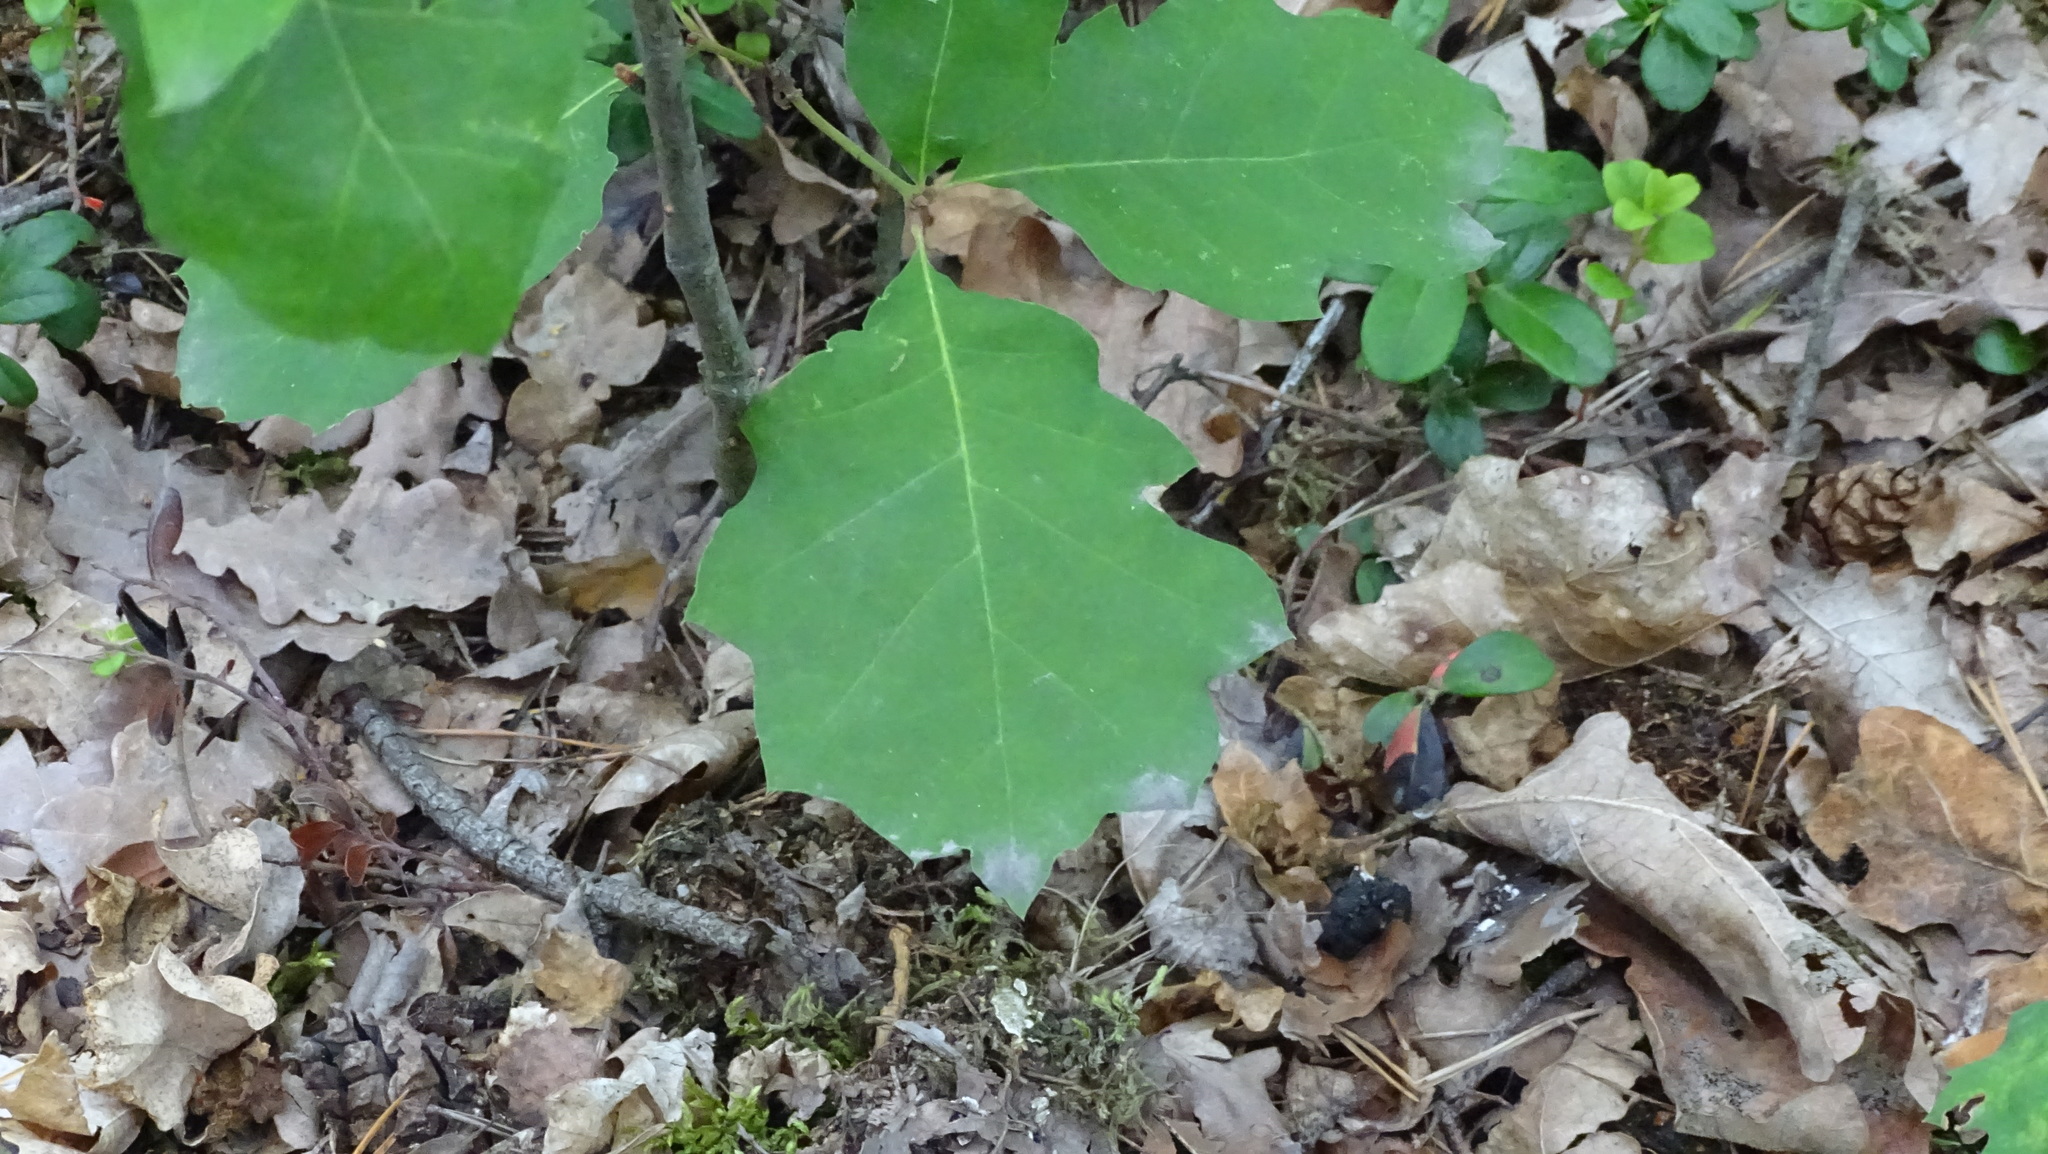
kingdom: Plantae
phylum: Tracheophyta
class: Magnoliopsida
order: Fagales
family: Fagaceae
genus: Quercus
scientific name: Quercus rubra
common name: Red oak
